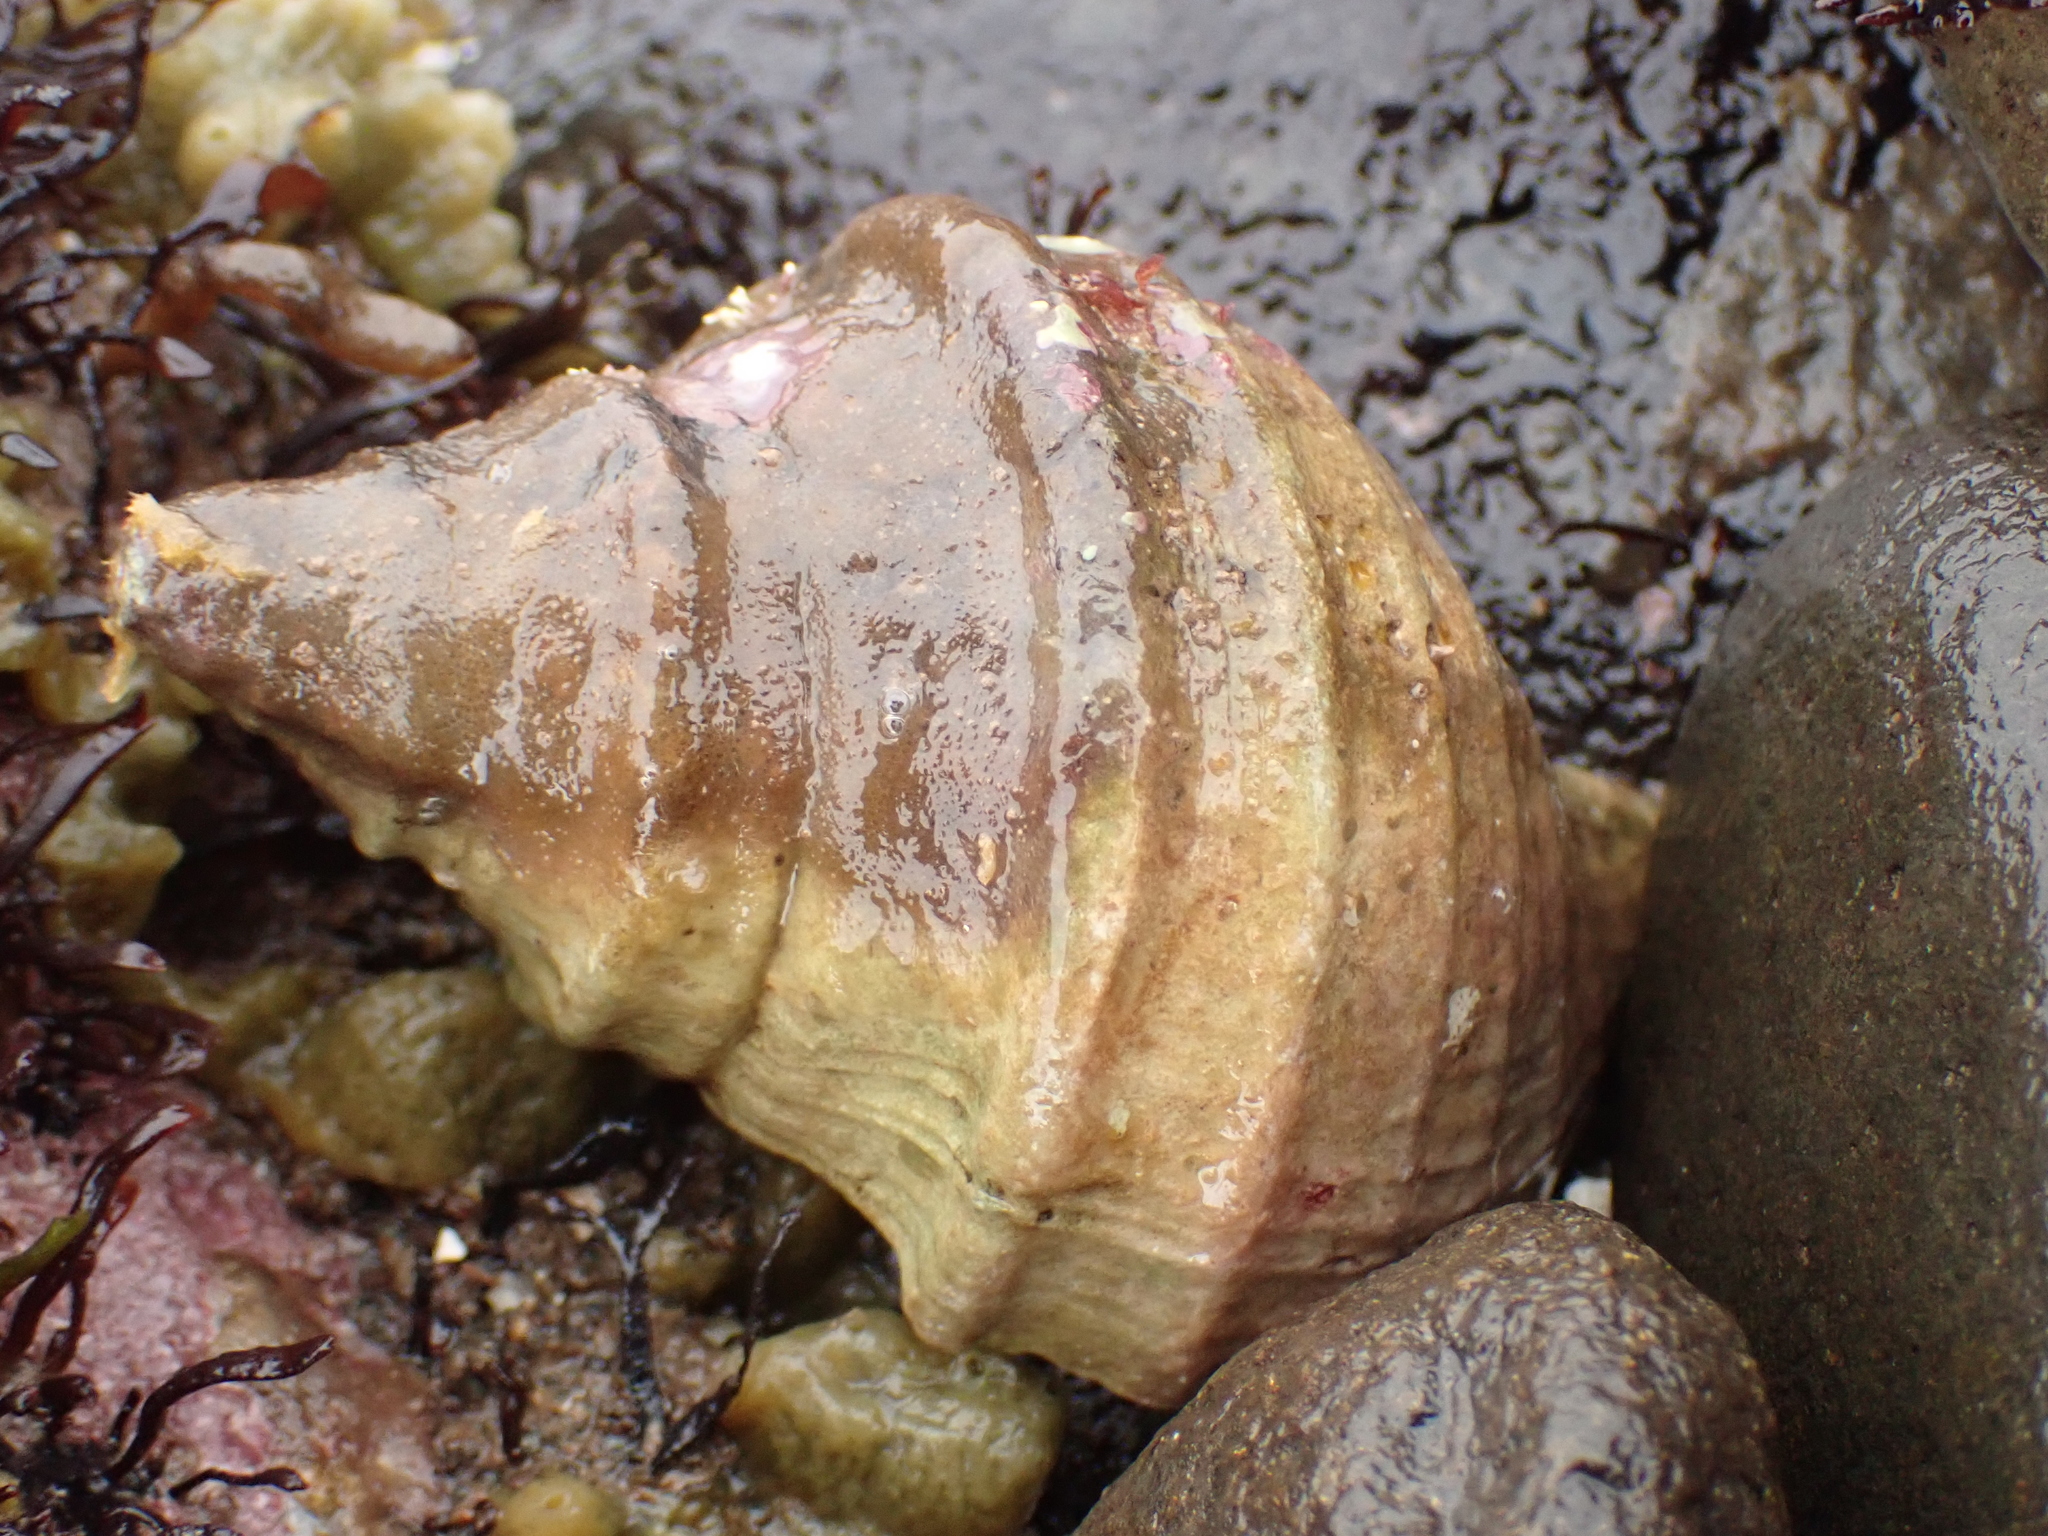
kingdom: Animalia
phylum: Mollusca
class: Gastropoda
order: Neogastropoda
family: Buccinidae
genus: Neptunea
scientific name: Neptunea decemcostata
